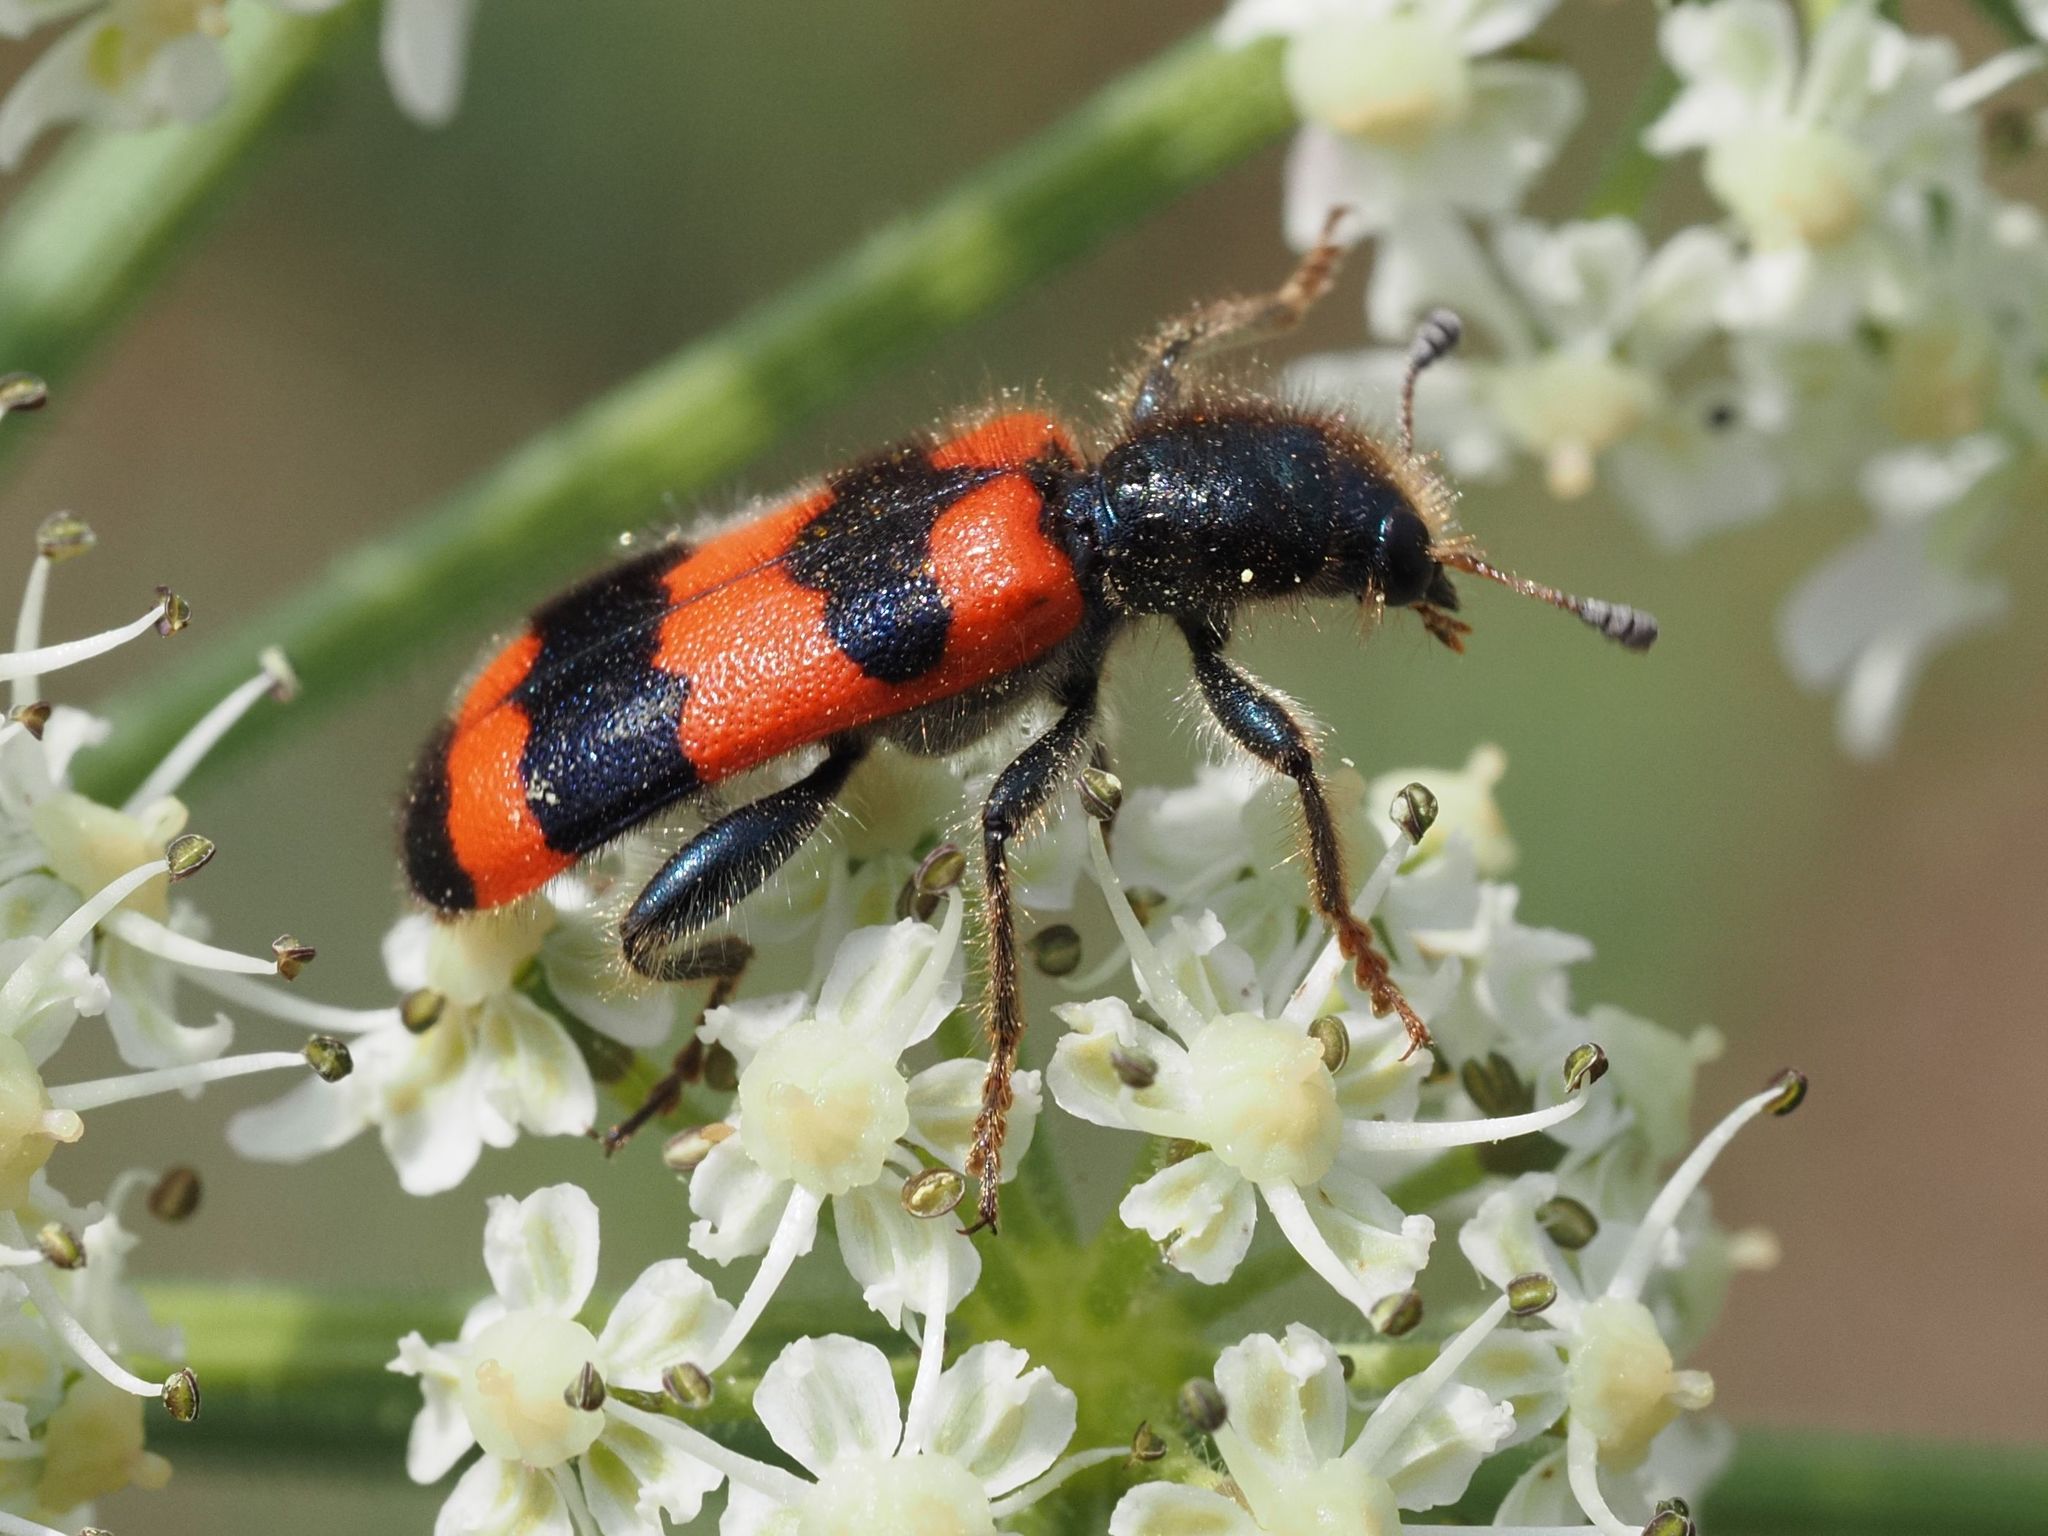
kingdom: Animalia
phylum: Arthropoda
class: Insecta
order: Coleoptera
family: Cleridae
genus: Trichodes
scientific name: Trichodes apiarius
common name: Bee-eating beetle
